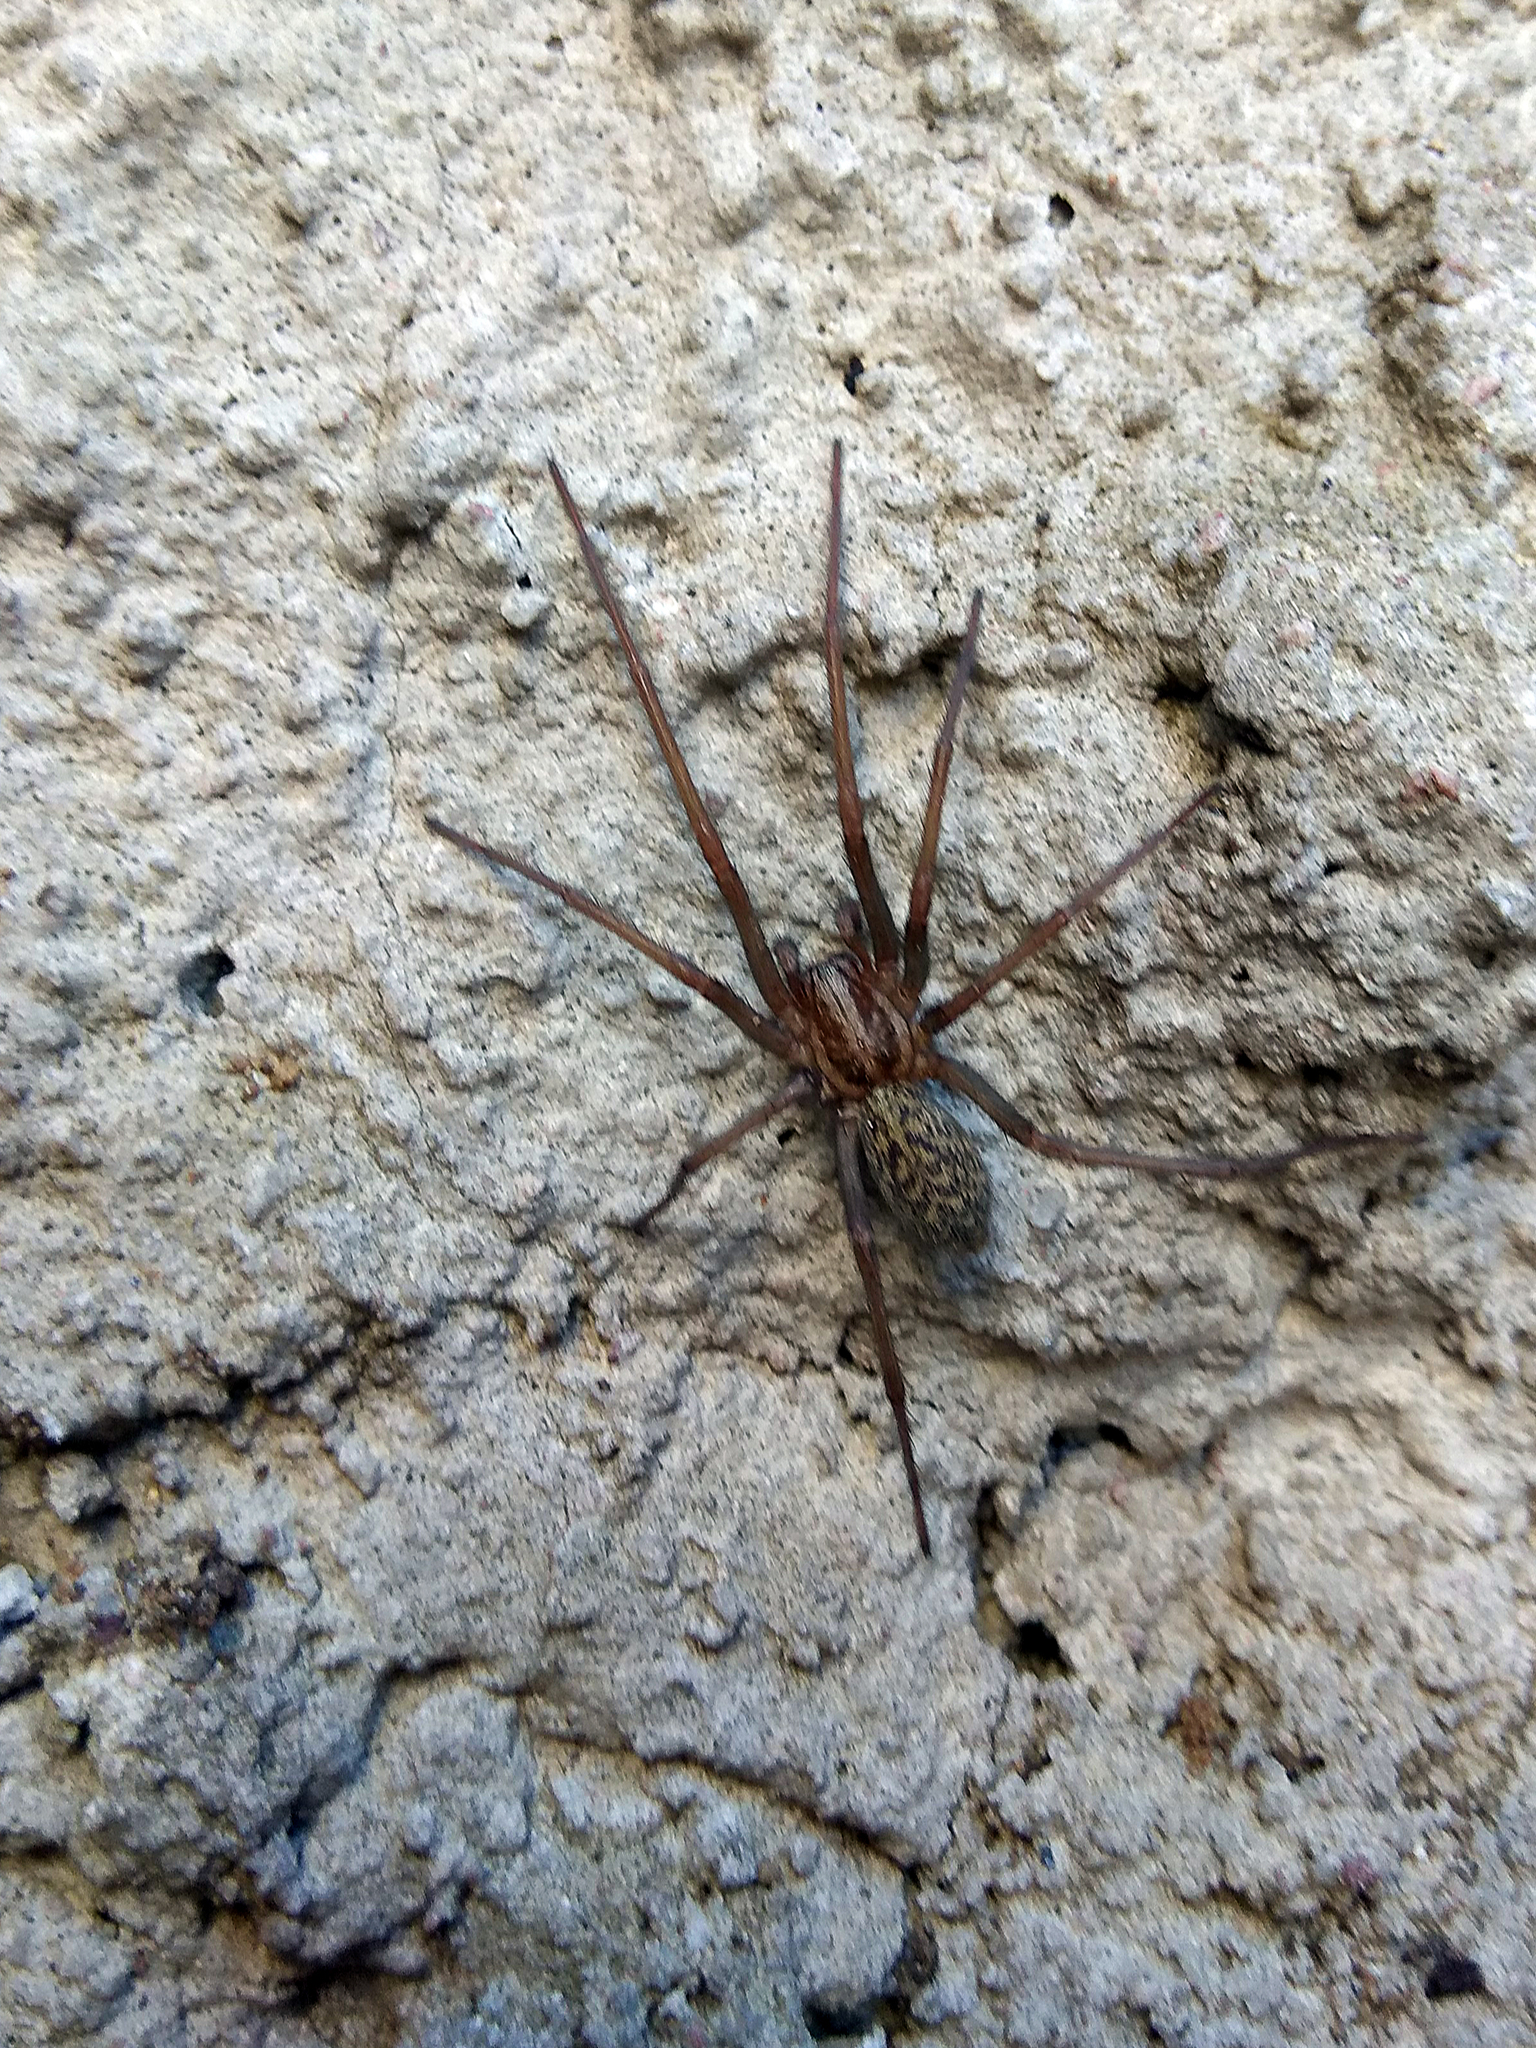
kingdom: Animalia
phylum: Arthropoda
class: Arachnida
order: Araneae
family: Agelenidae
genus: Eratigena
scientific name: Eratigena atrica
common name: Giant house spider
